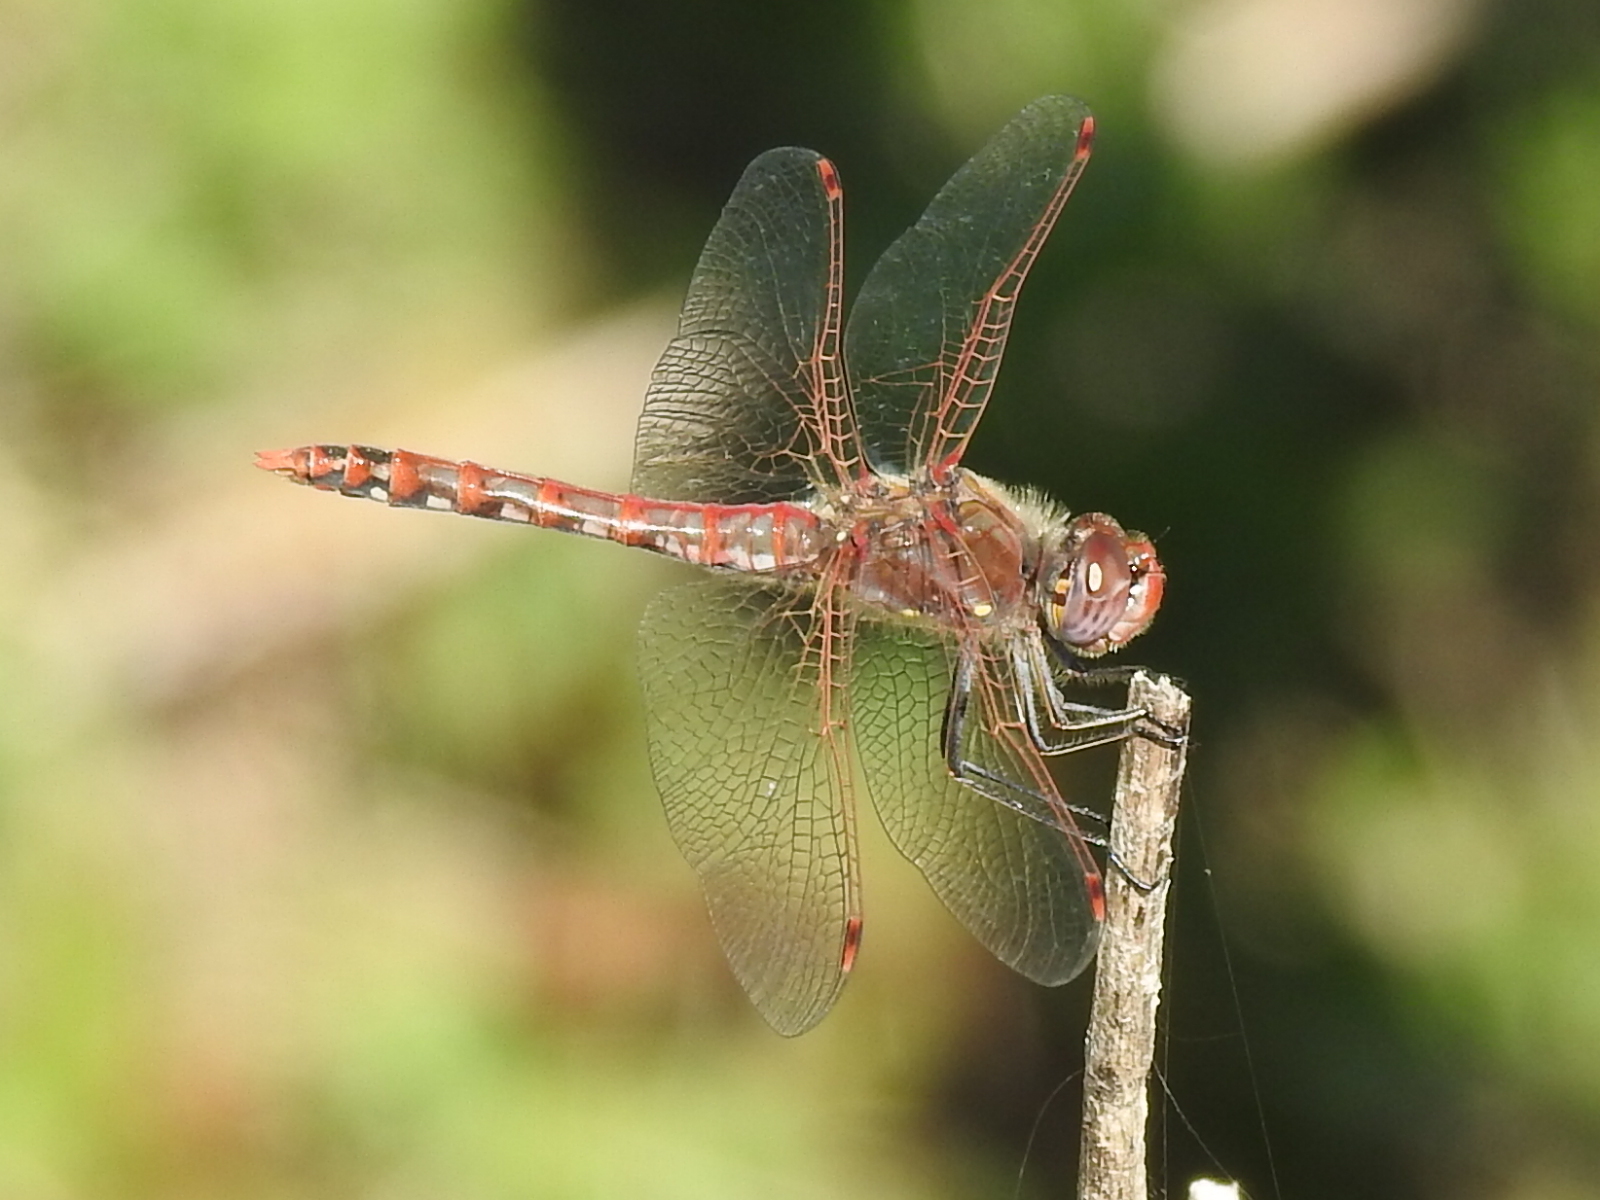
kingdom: Animalia
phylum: Arthropoda
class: Insecta
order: Odonata
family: Libellulidae
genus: Sympetrum
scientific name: Sympetrum corruptum
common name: Variegated meadowhawk
